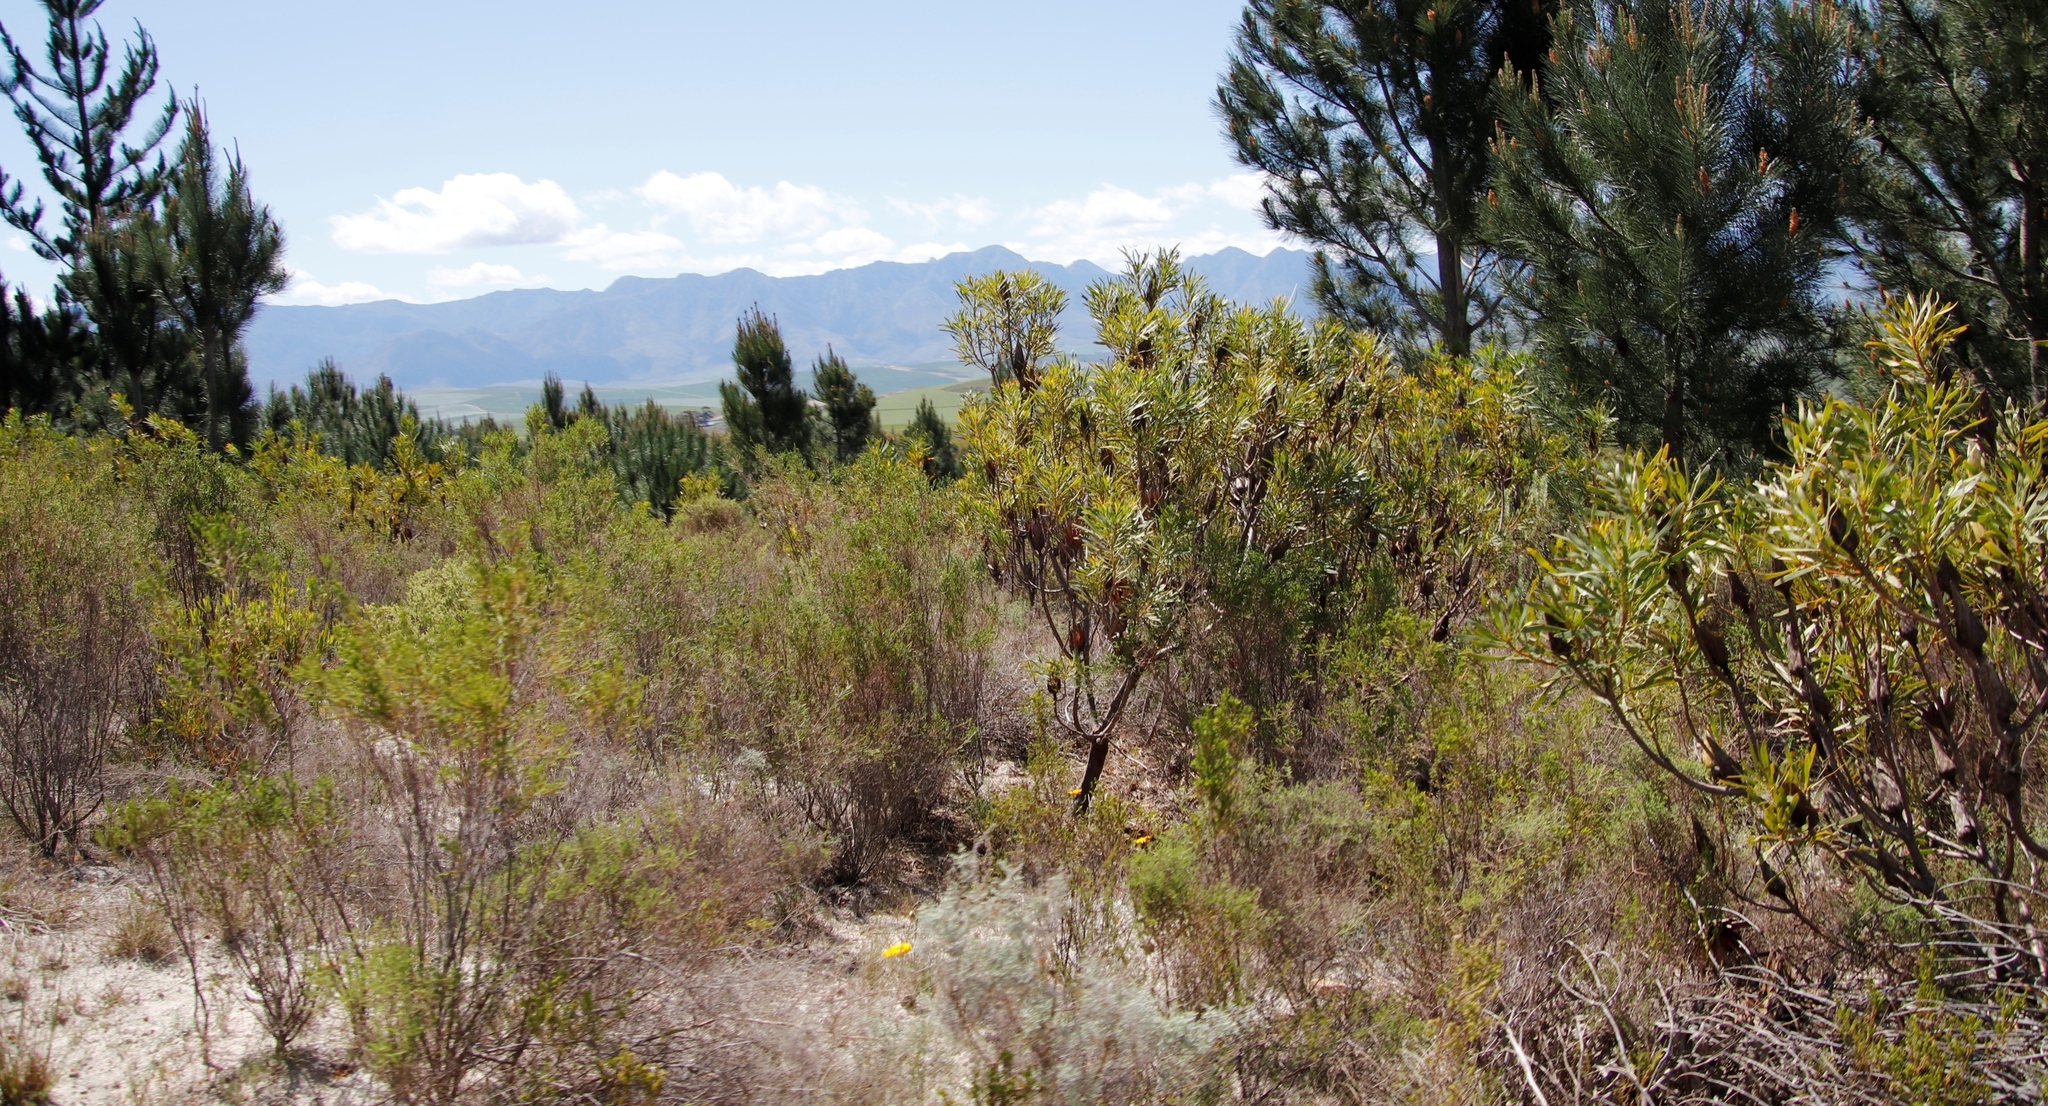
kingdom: Plantae
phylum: Tracheophyta
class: Magnoliopsida
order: Proteales
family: Proteaceae
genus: Protea
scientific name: Protea repens
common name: Sugarbush
